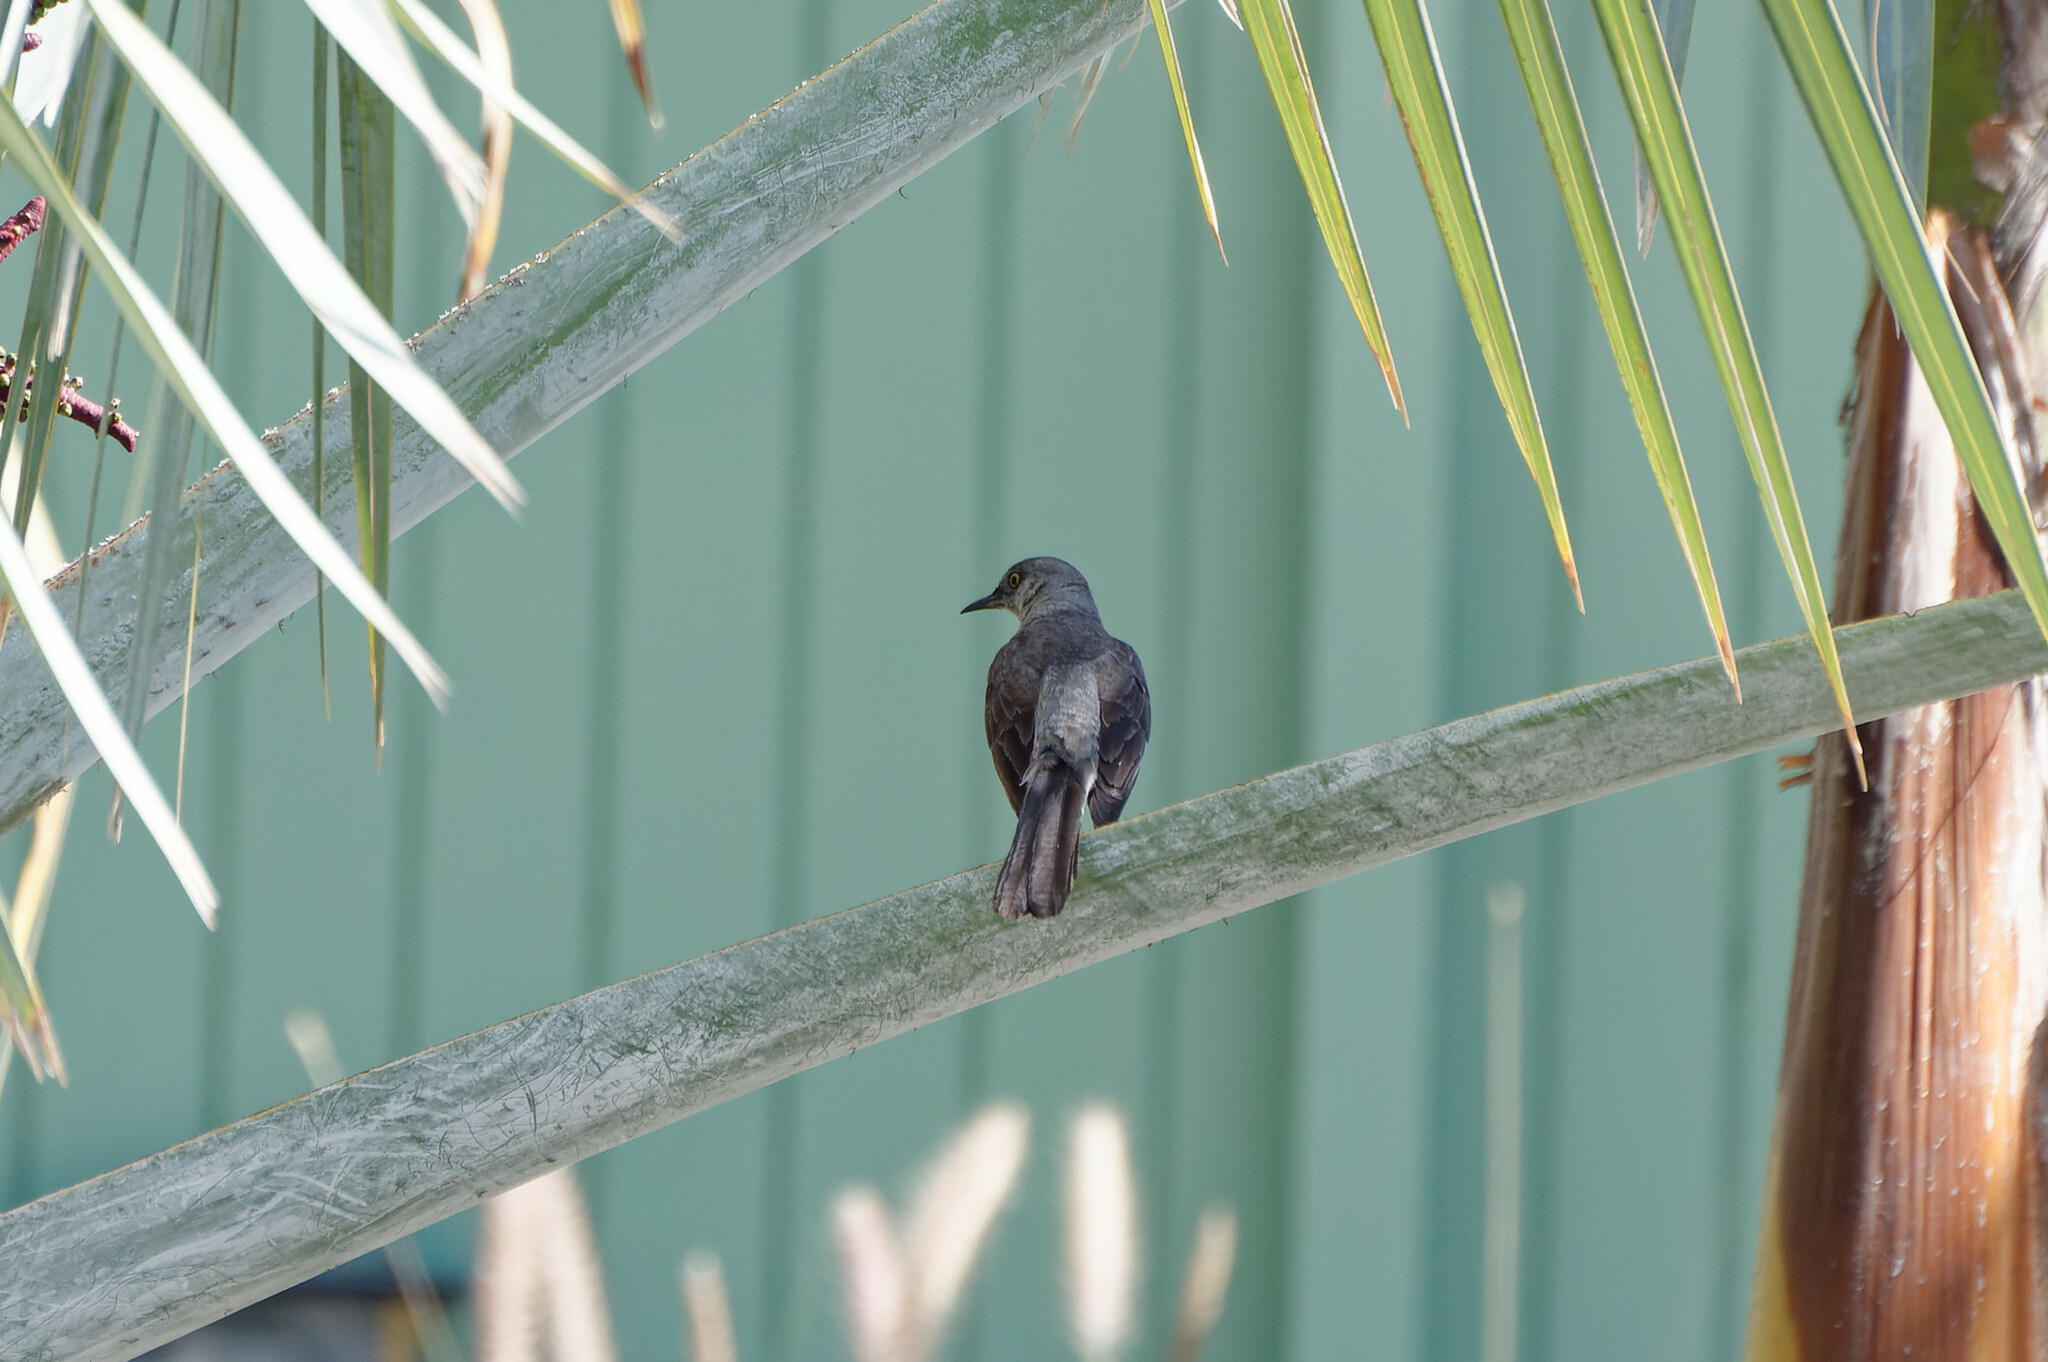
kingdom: Animalia
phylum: Chordata
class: Aves
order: Passeriformes
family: Mimidae
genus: Mimus
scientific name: Mimus polyglottos
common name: Northern mockingbird
